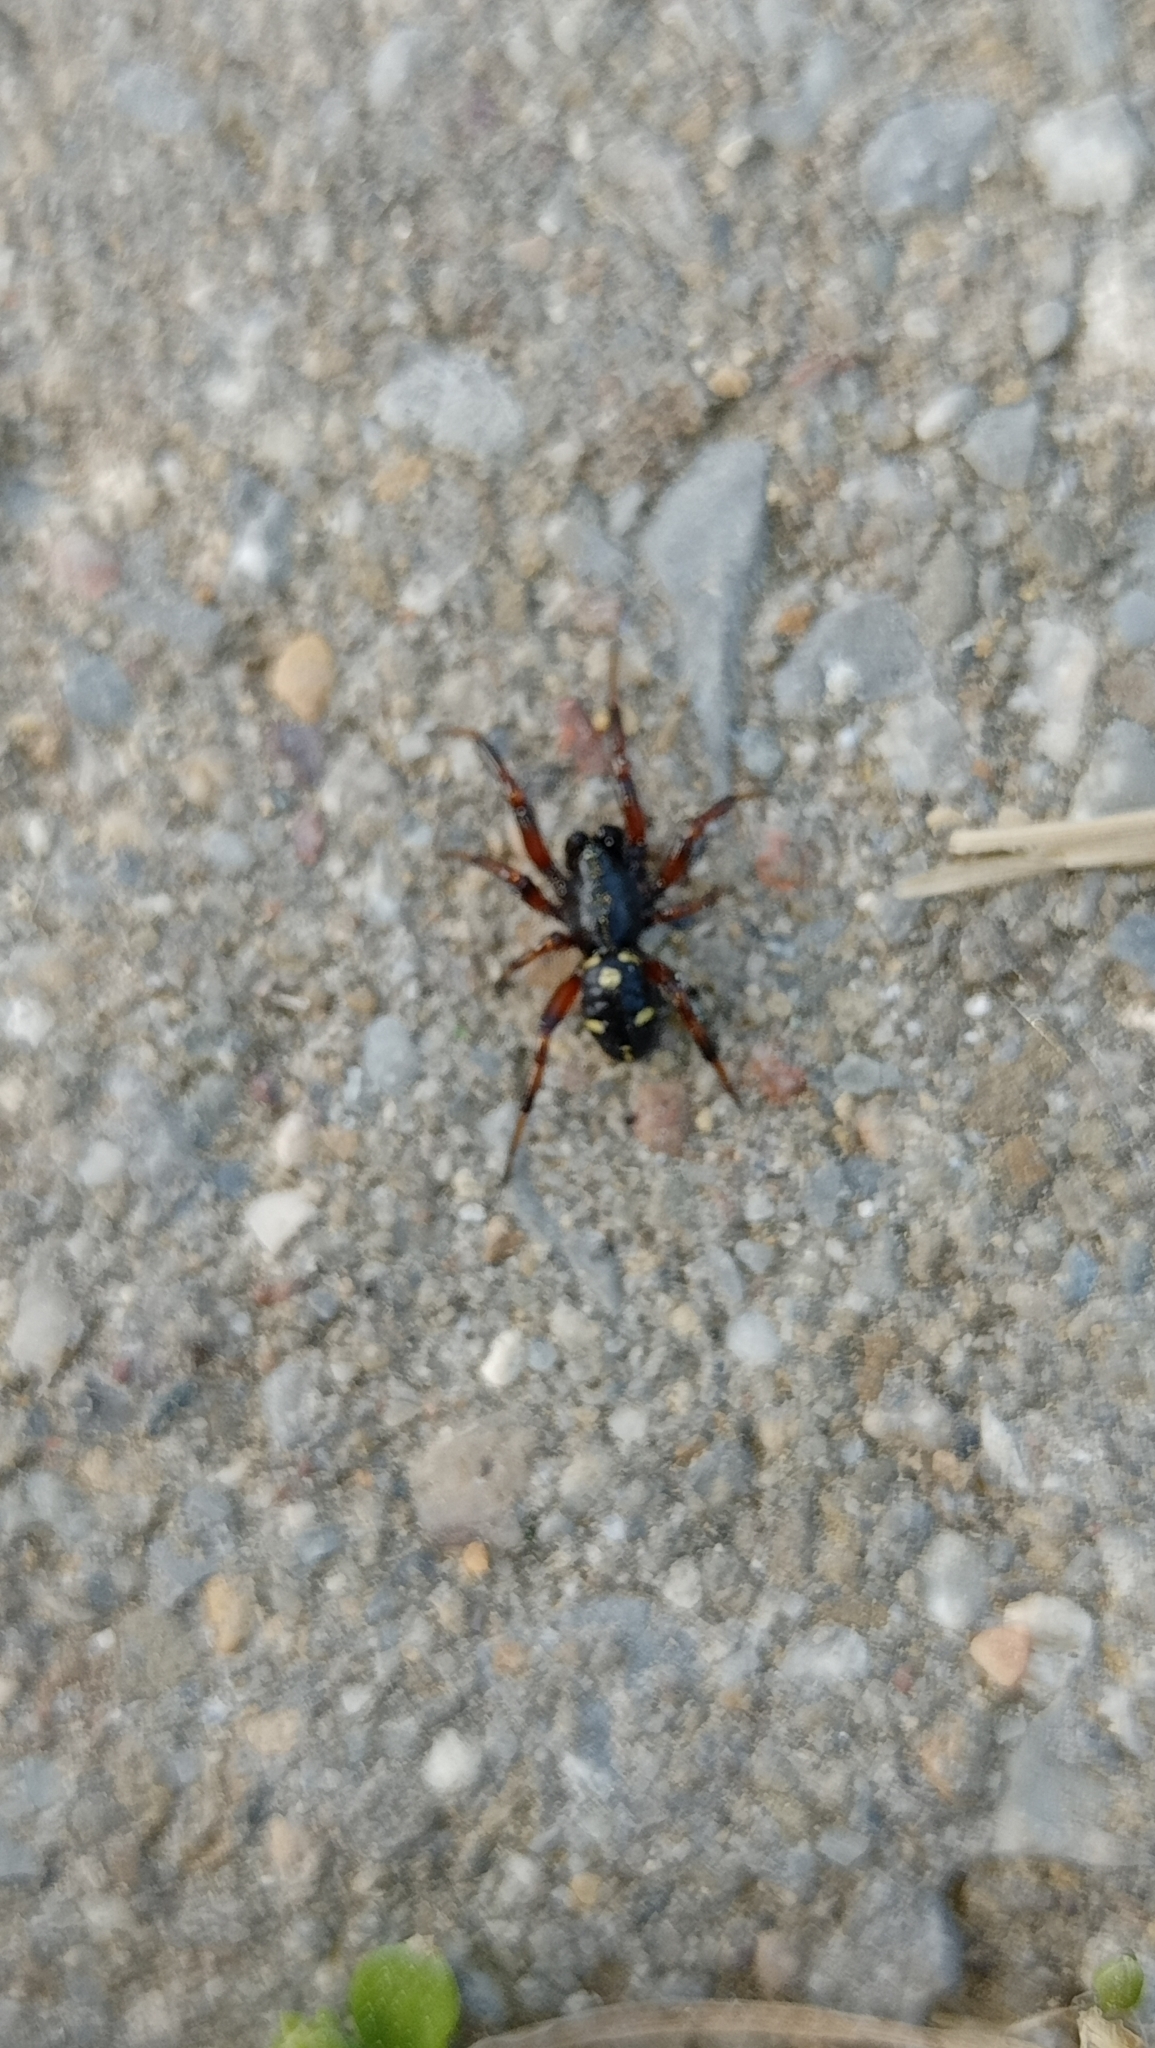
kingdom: Animalia
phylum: Arthropoda
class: Arachnida
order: Araneae
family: Theridiidae
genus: Asagena
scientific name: Asagena phalerata
